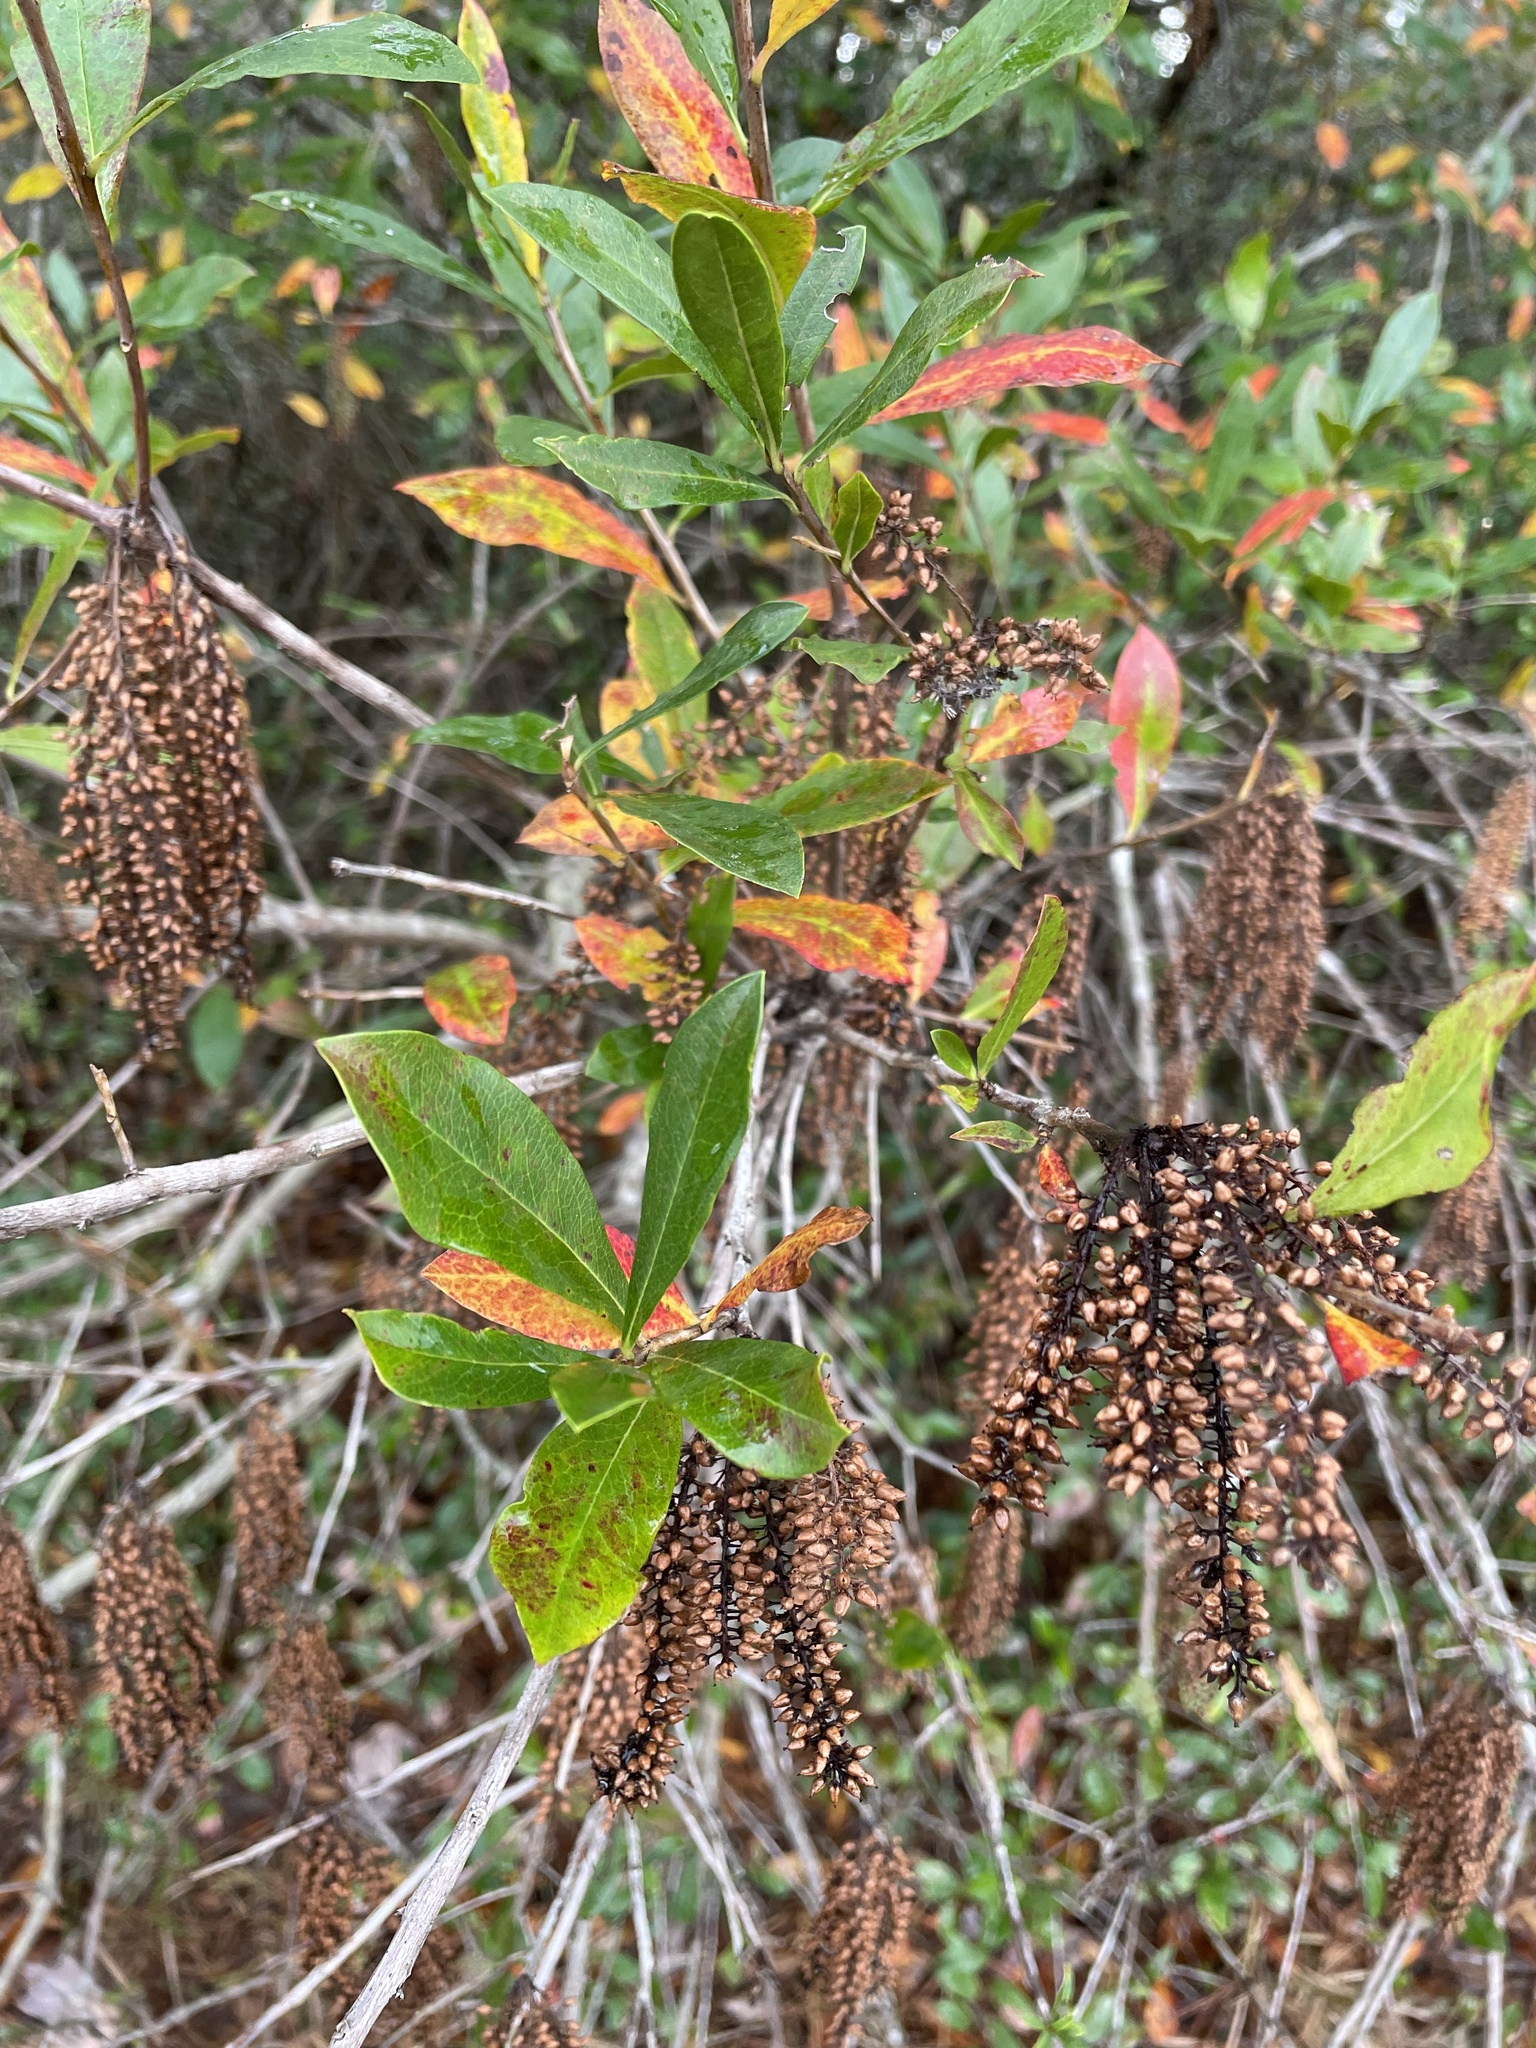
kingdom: Plantae
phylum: Tracheophyta
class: Magnoliopsida
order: Ericales
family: Cyrillaceae
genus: Cyrilla
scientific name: Cyrilla racemiflora
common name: Black titi
